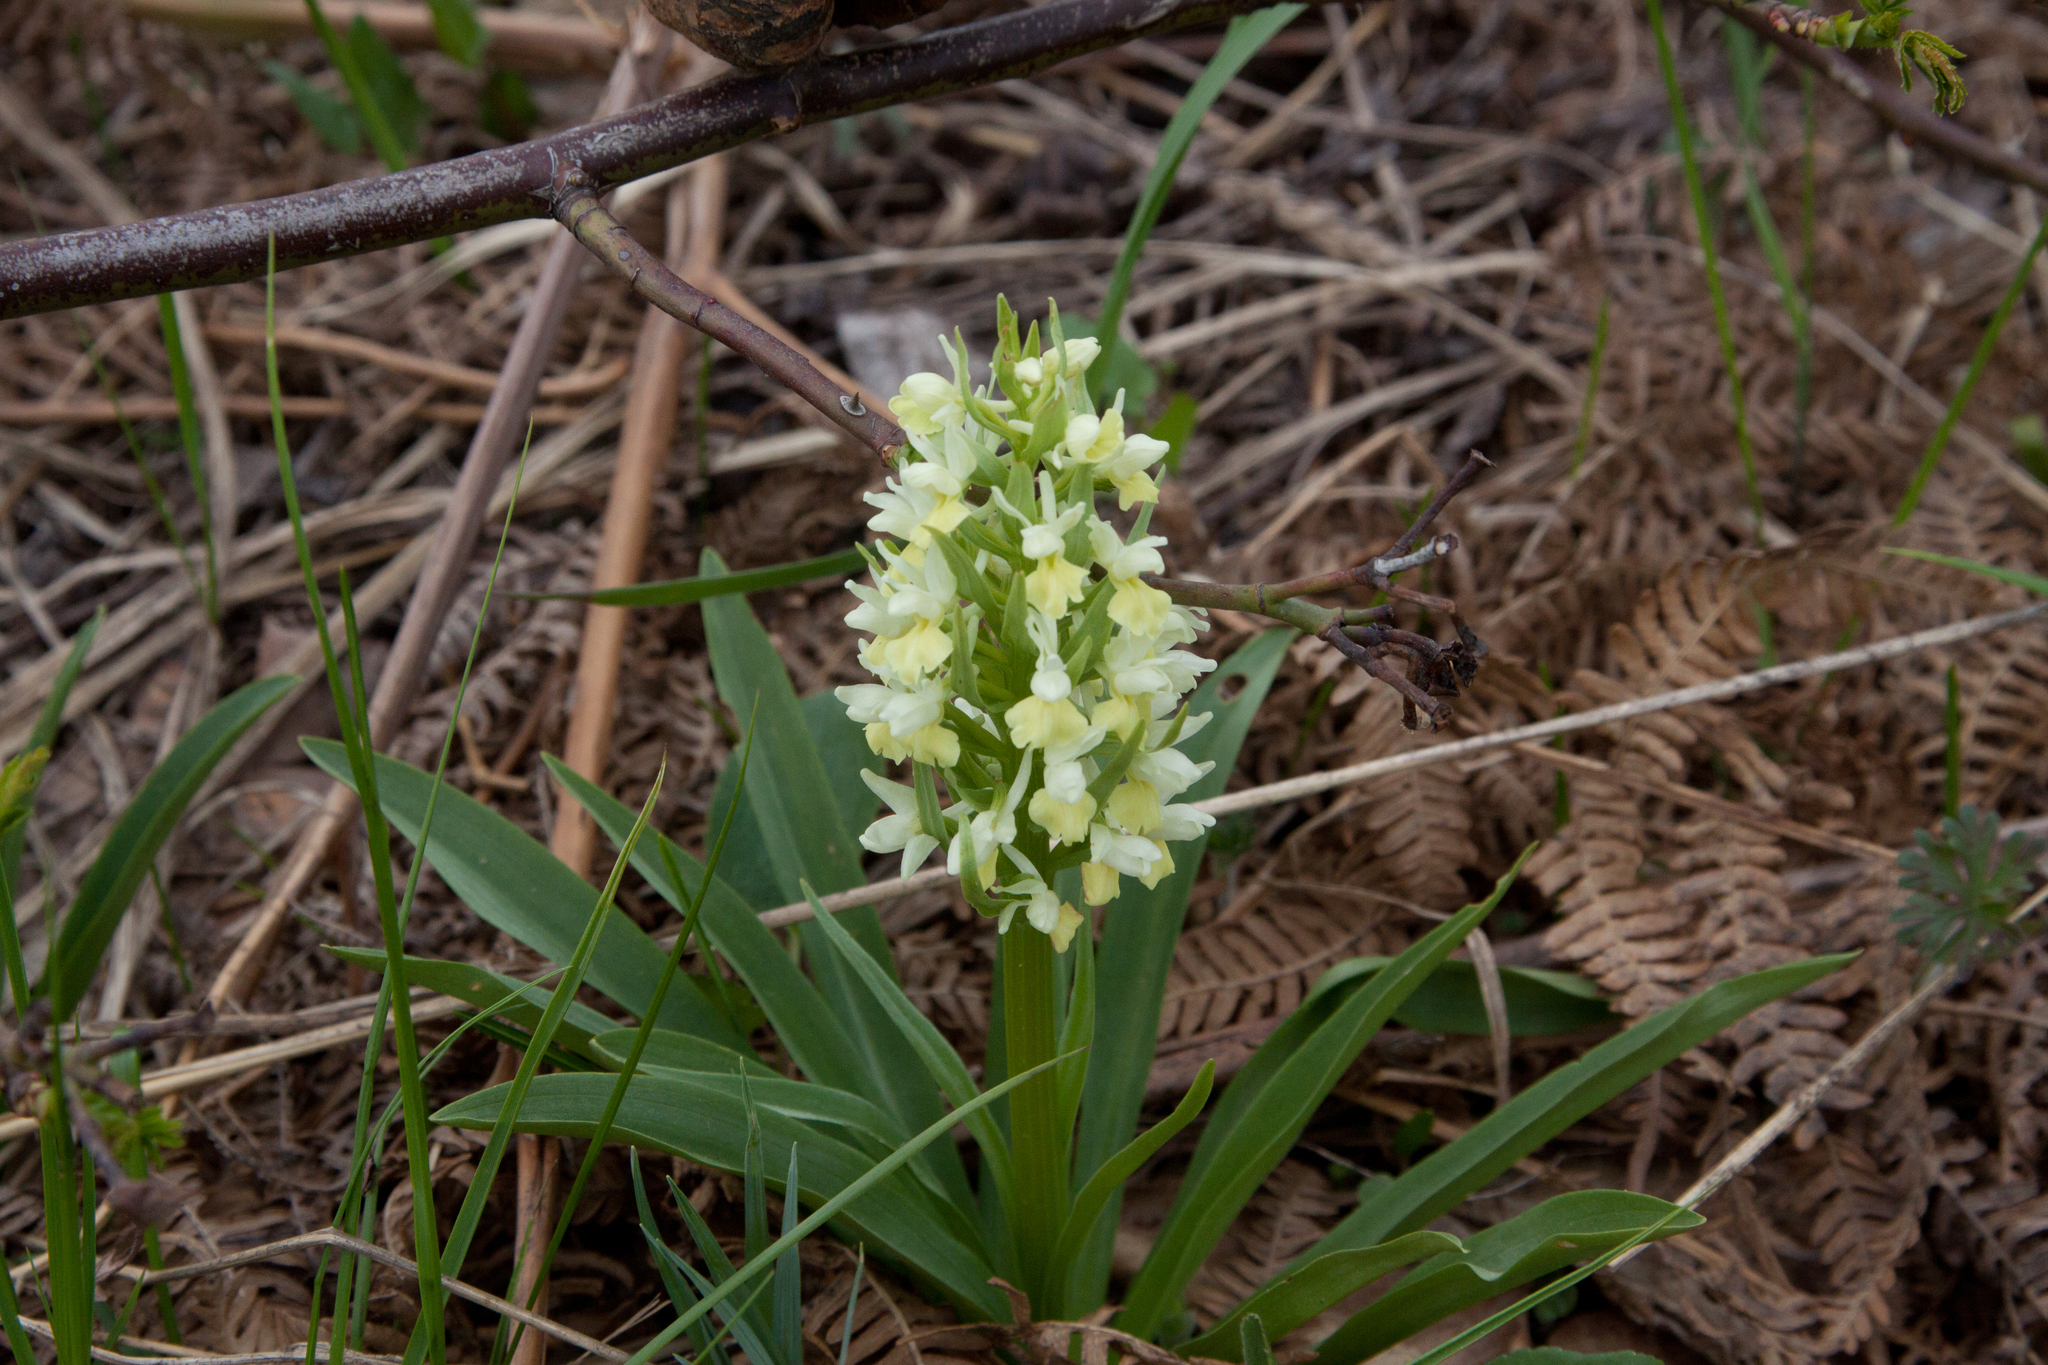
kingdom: Plantae
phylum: Tracheophyta
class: Liliopsida
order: Asparagales
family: Orchidaceae
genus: Dactylorhiza
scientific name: Dactylorhiza romana
